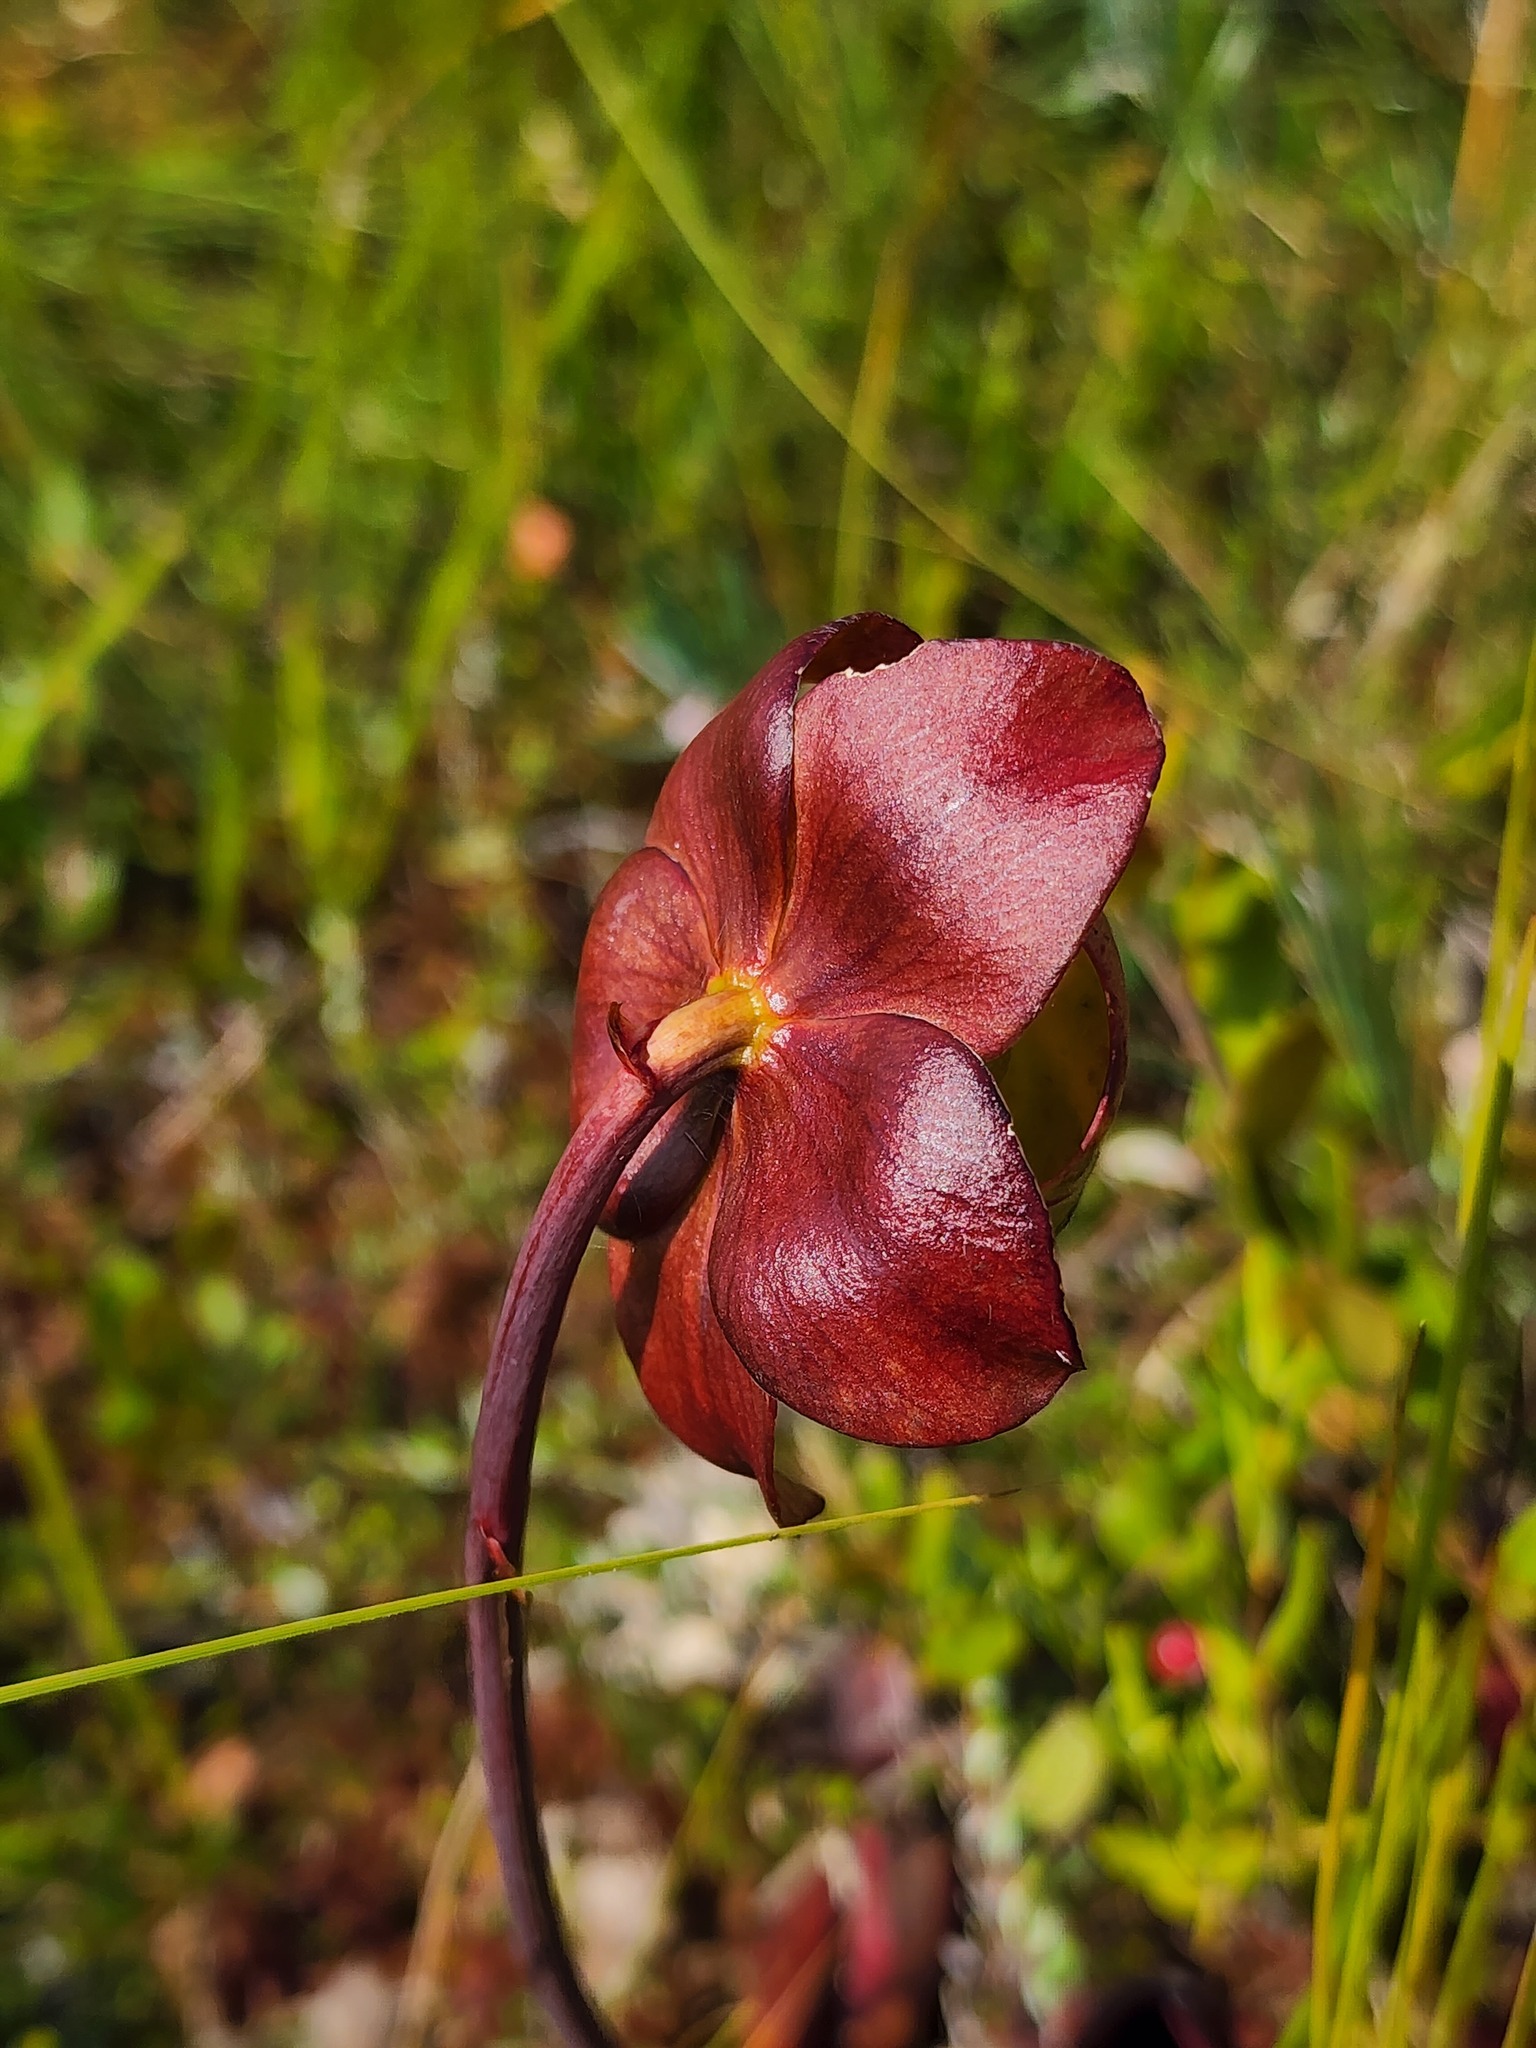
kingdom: Plantae
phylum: Tracheophyta
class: Magnoliopsida
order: Ericales
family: Sarraceniaceae
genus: Sarracenia
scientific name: Sarracenia purpurea
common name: Pitcherplant
